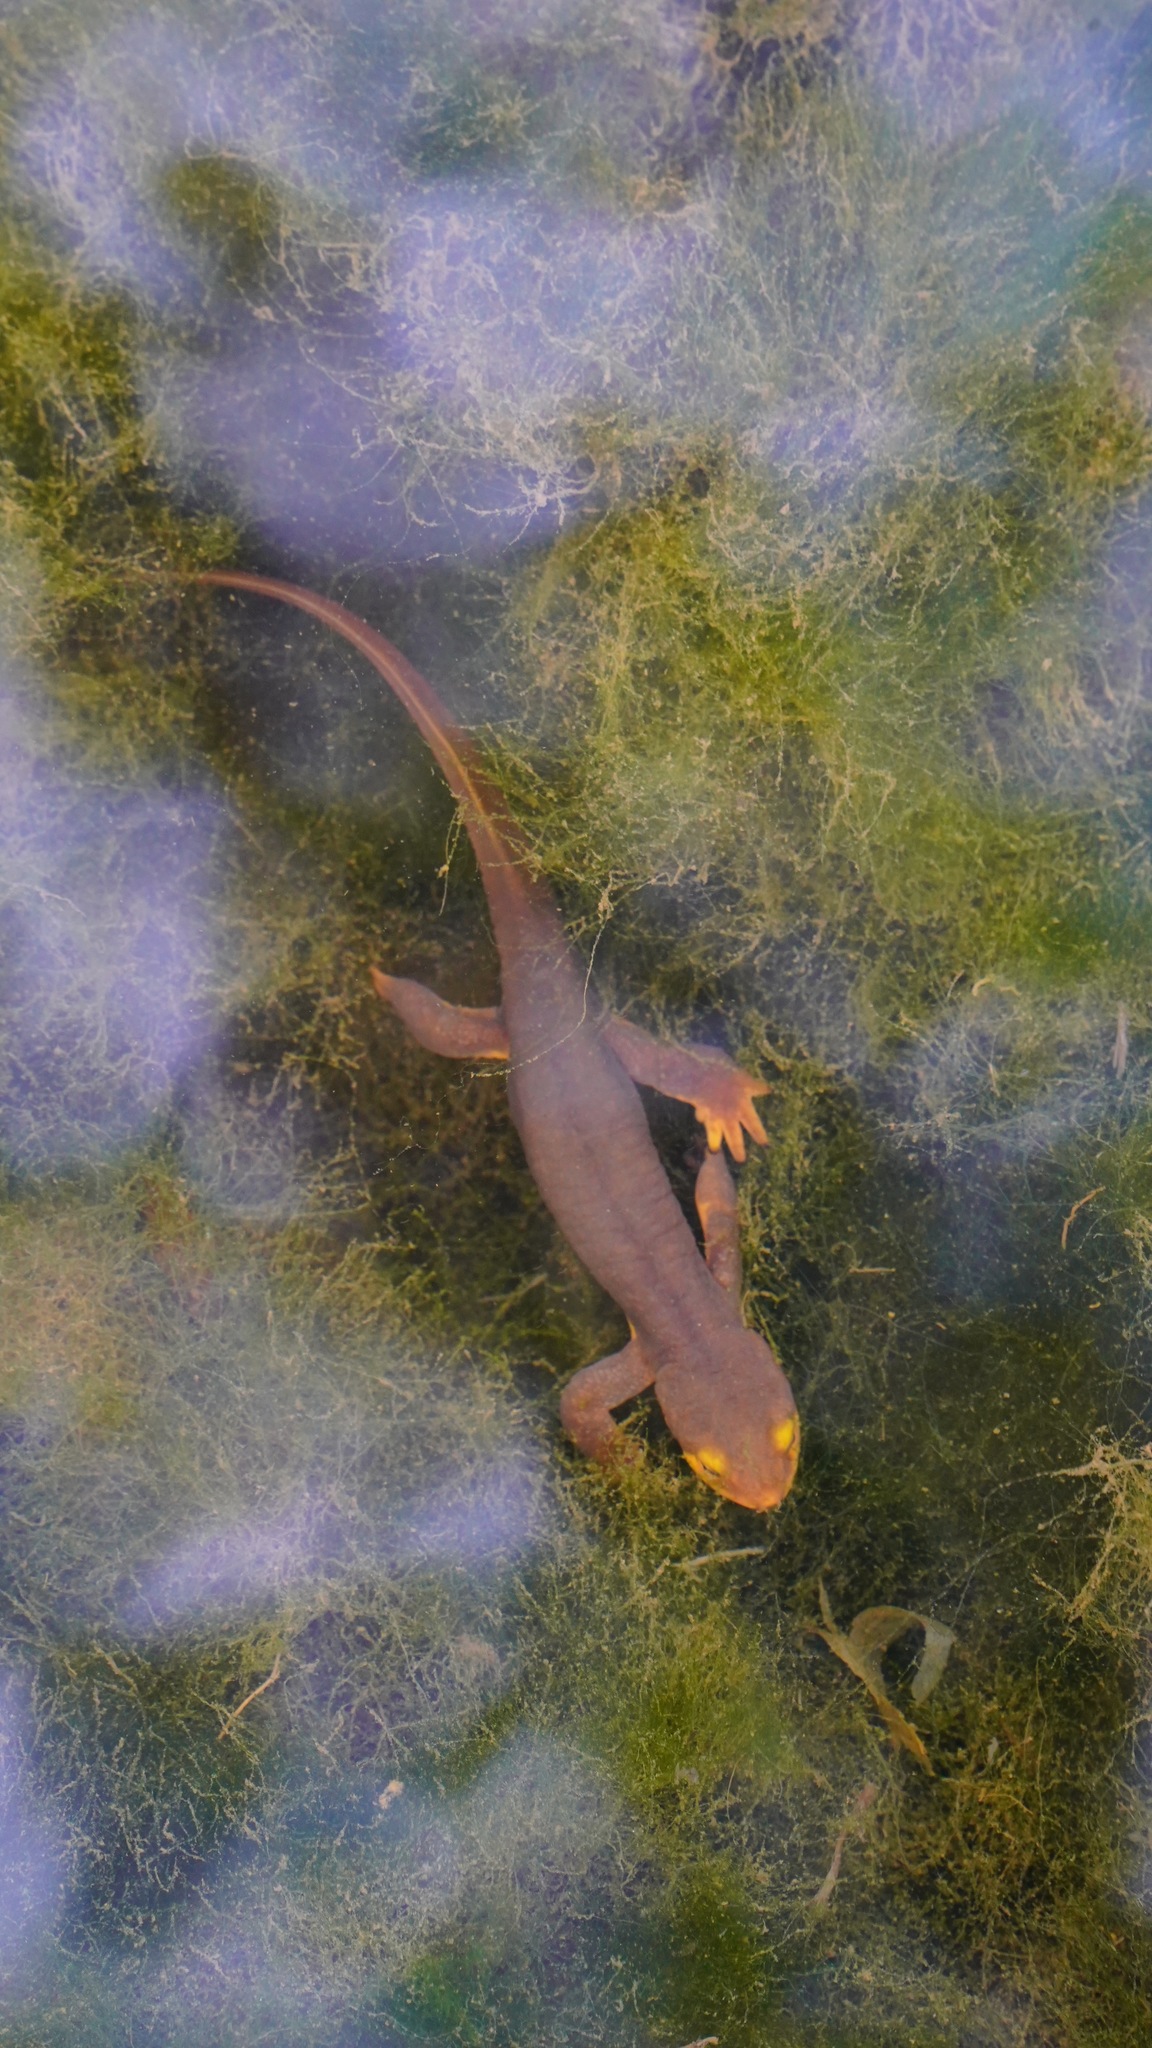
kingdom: Animalia
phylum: Chordata
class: Amphibia
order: Caudata
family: Salamandridae
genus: Taricha
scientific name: Taricha torosa
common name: California newt
